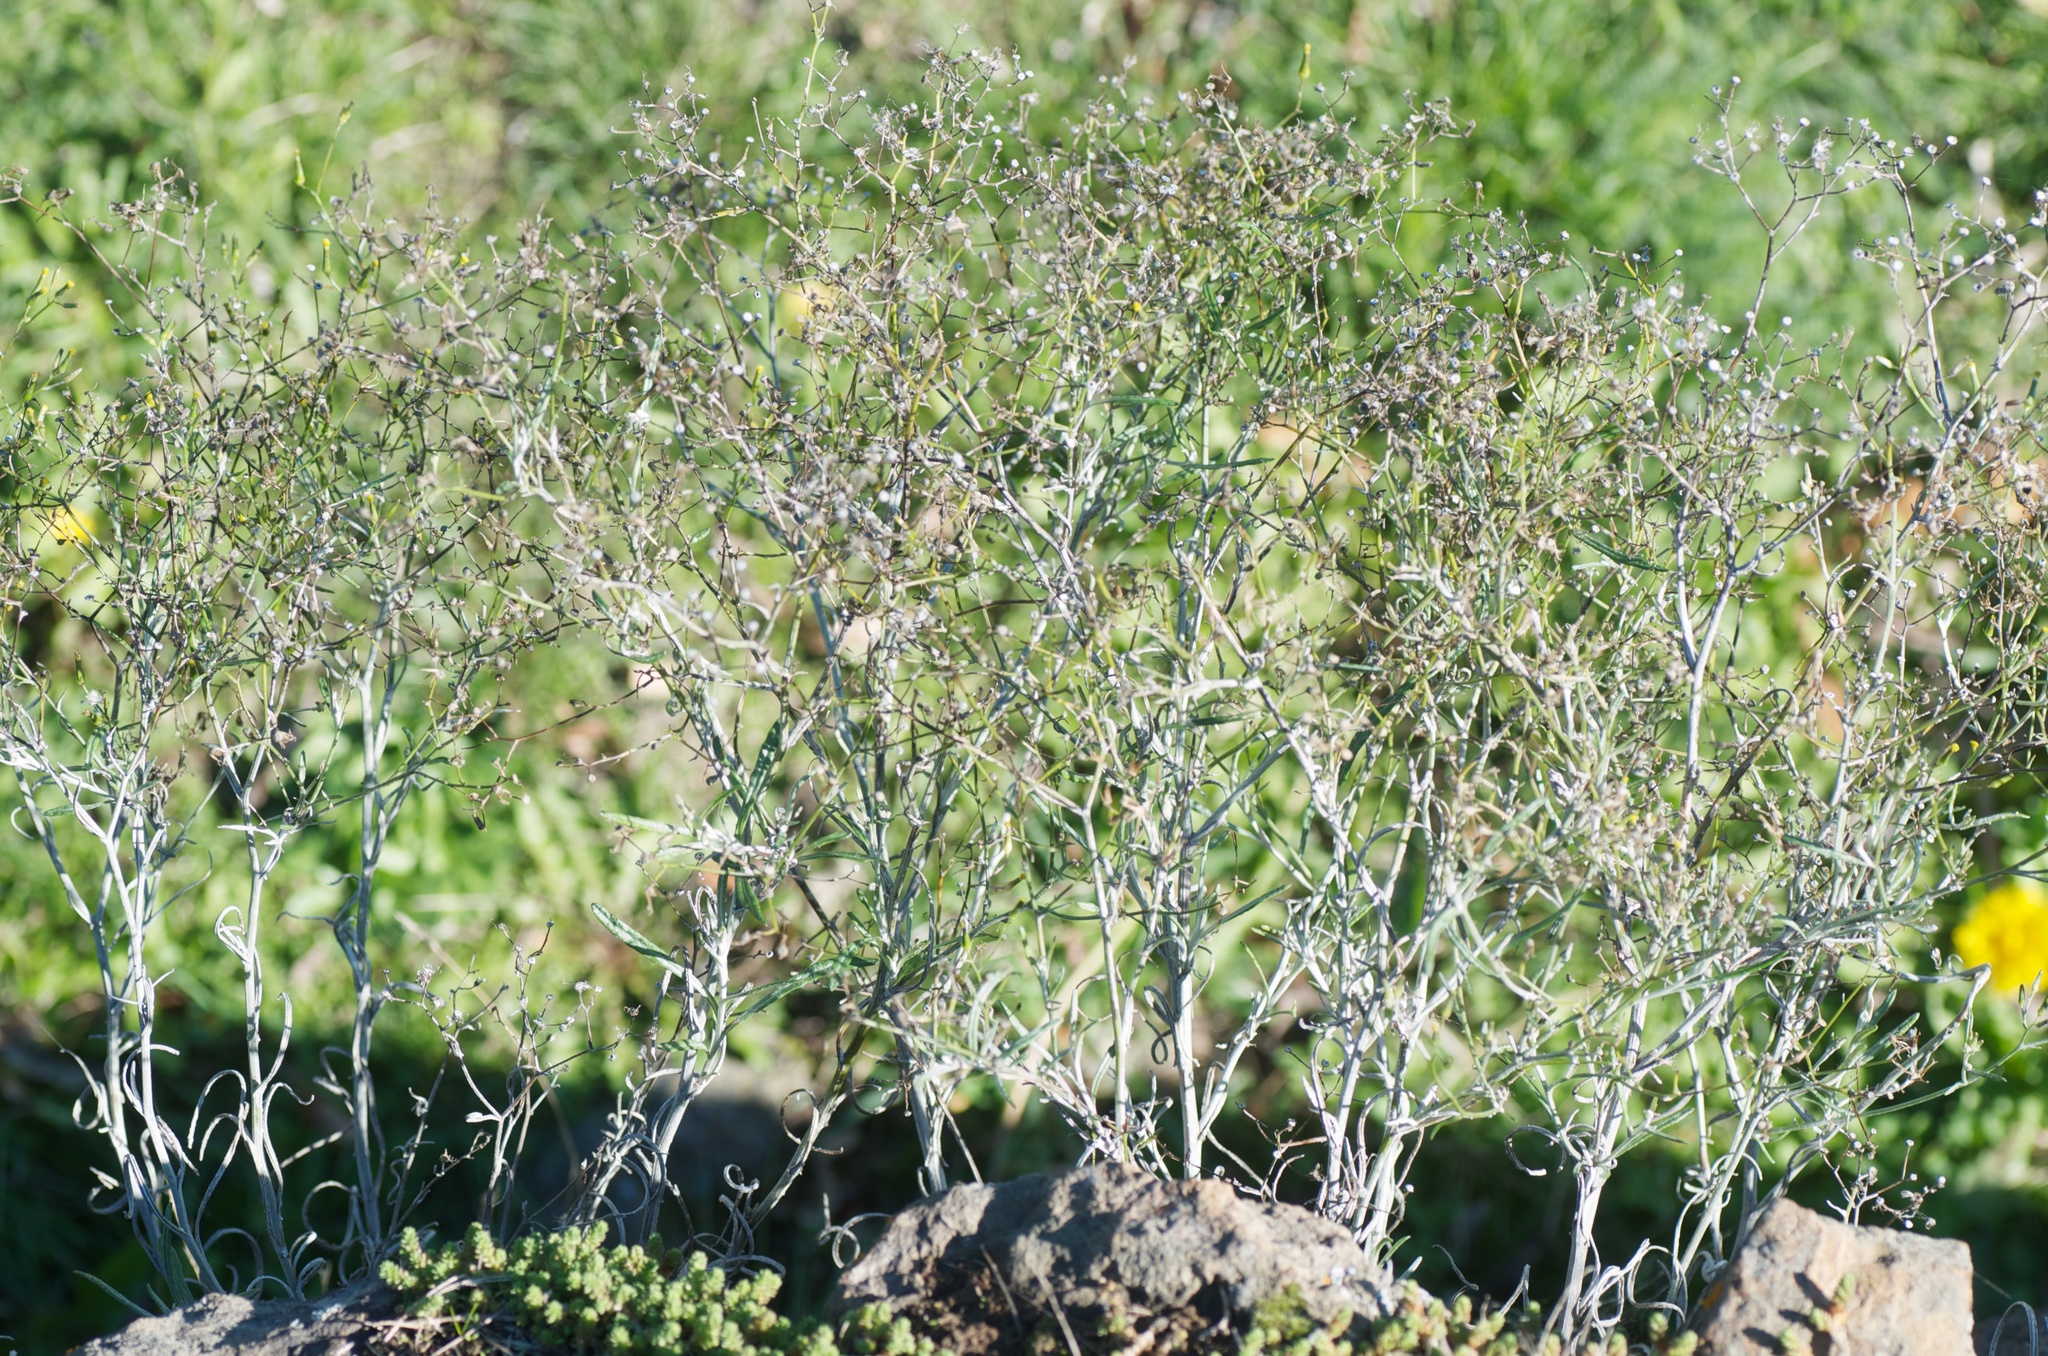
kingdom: Plantae
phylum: Tracheophyta
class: Magnoliopsida
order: Asterales
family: Asteraceae
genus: Senecio
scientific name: Senecio quadridentatus
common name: Cotton fireweed
